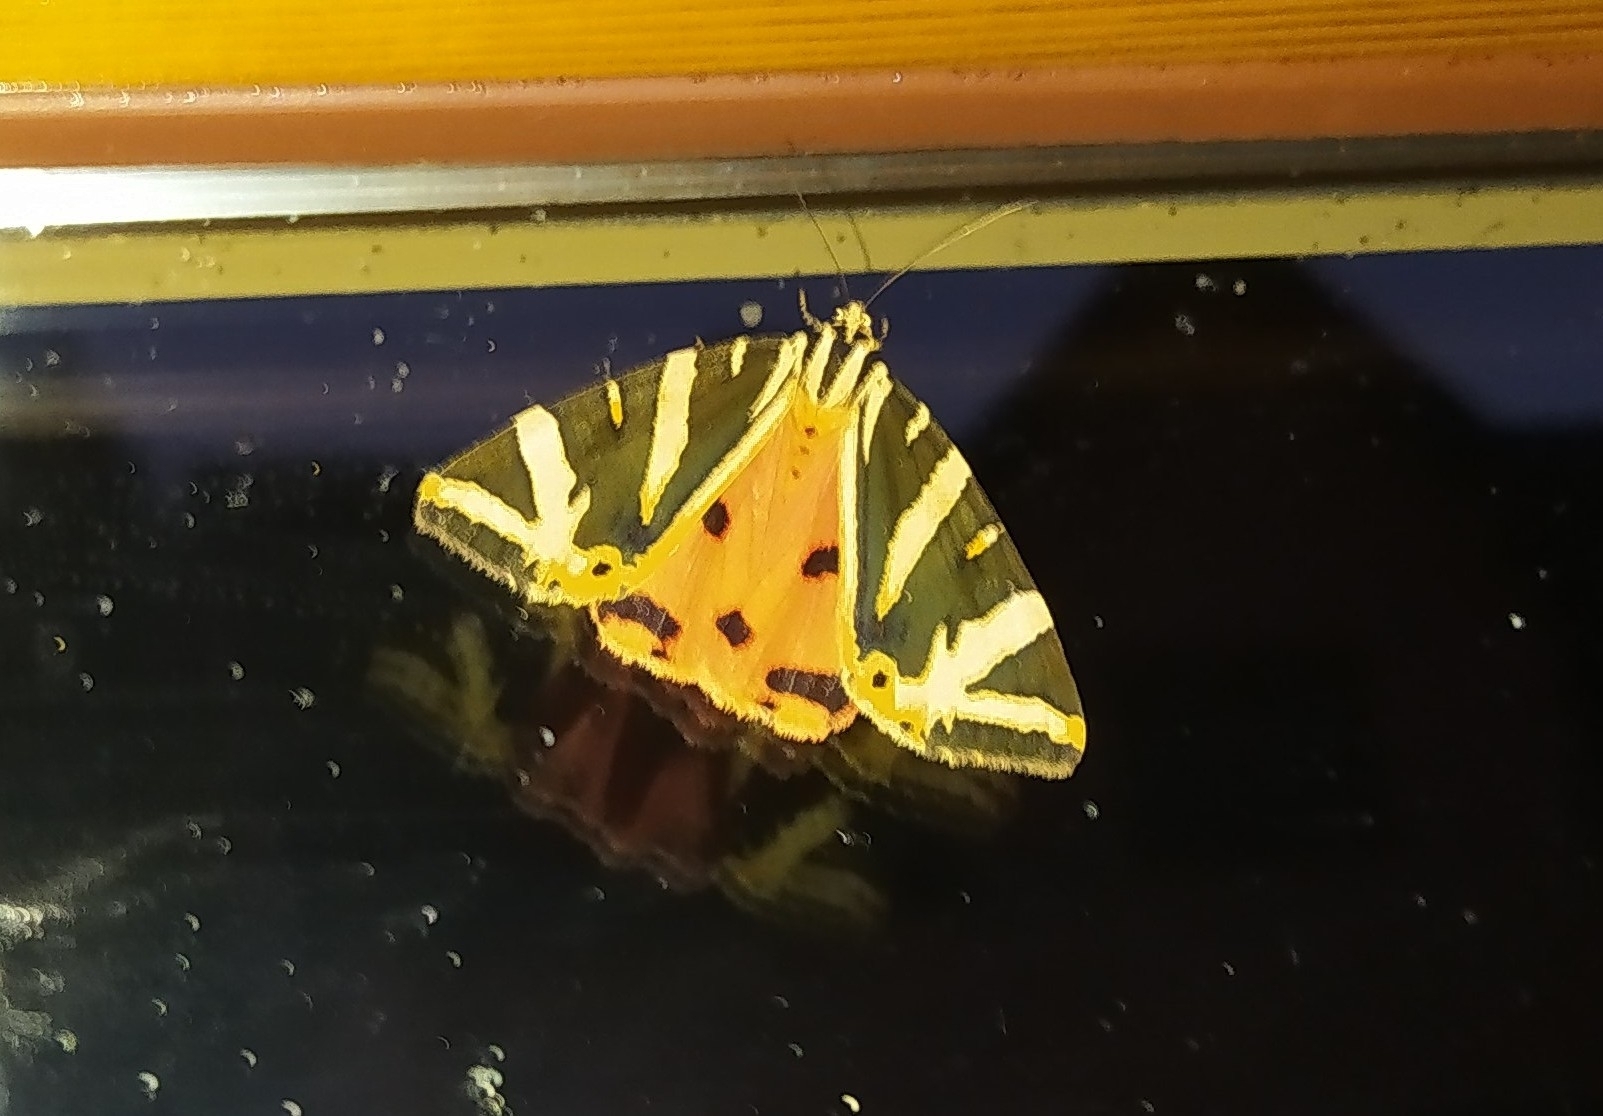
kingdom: Animalia
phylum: Arthropoda
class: Insecta
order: Lepidoptera
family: Erebidae
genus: Euplagia
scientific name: Euplagia quadripunctaria
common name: Jersey tiger
